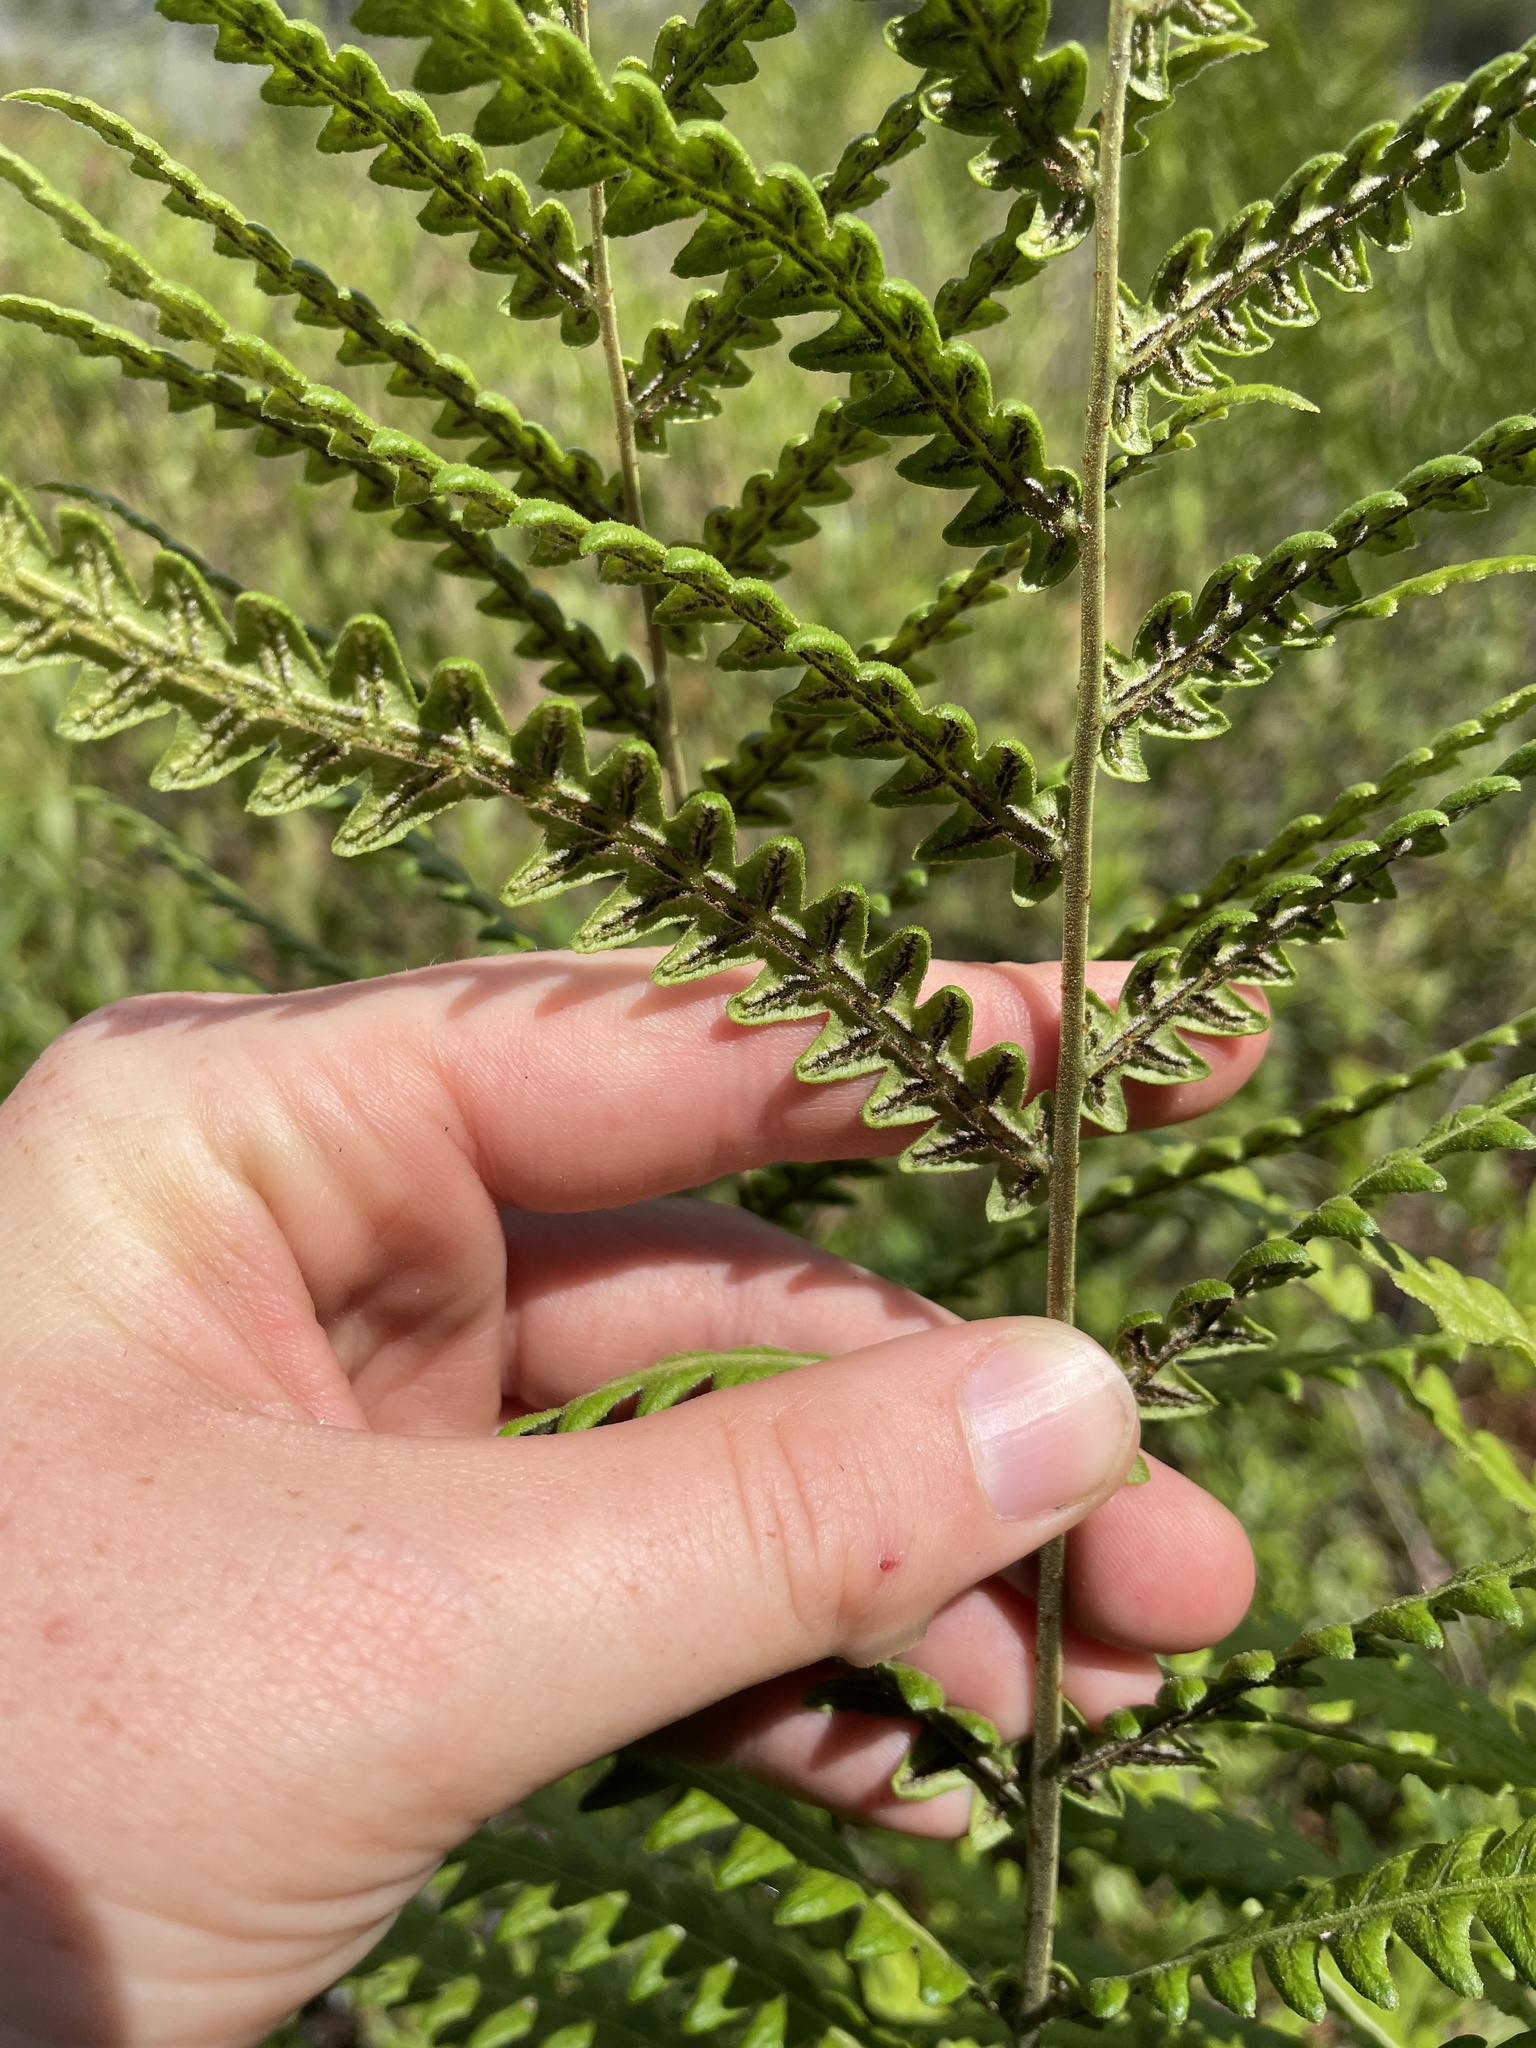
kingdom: Plantae
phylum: Tracheophyta
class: Polypodiopsida
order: Polypodiales
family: Blechnaceae
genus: Anchistea
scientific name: Anchistea virginica
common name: Virginia chain fern
